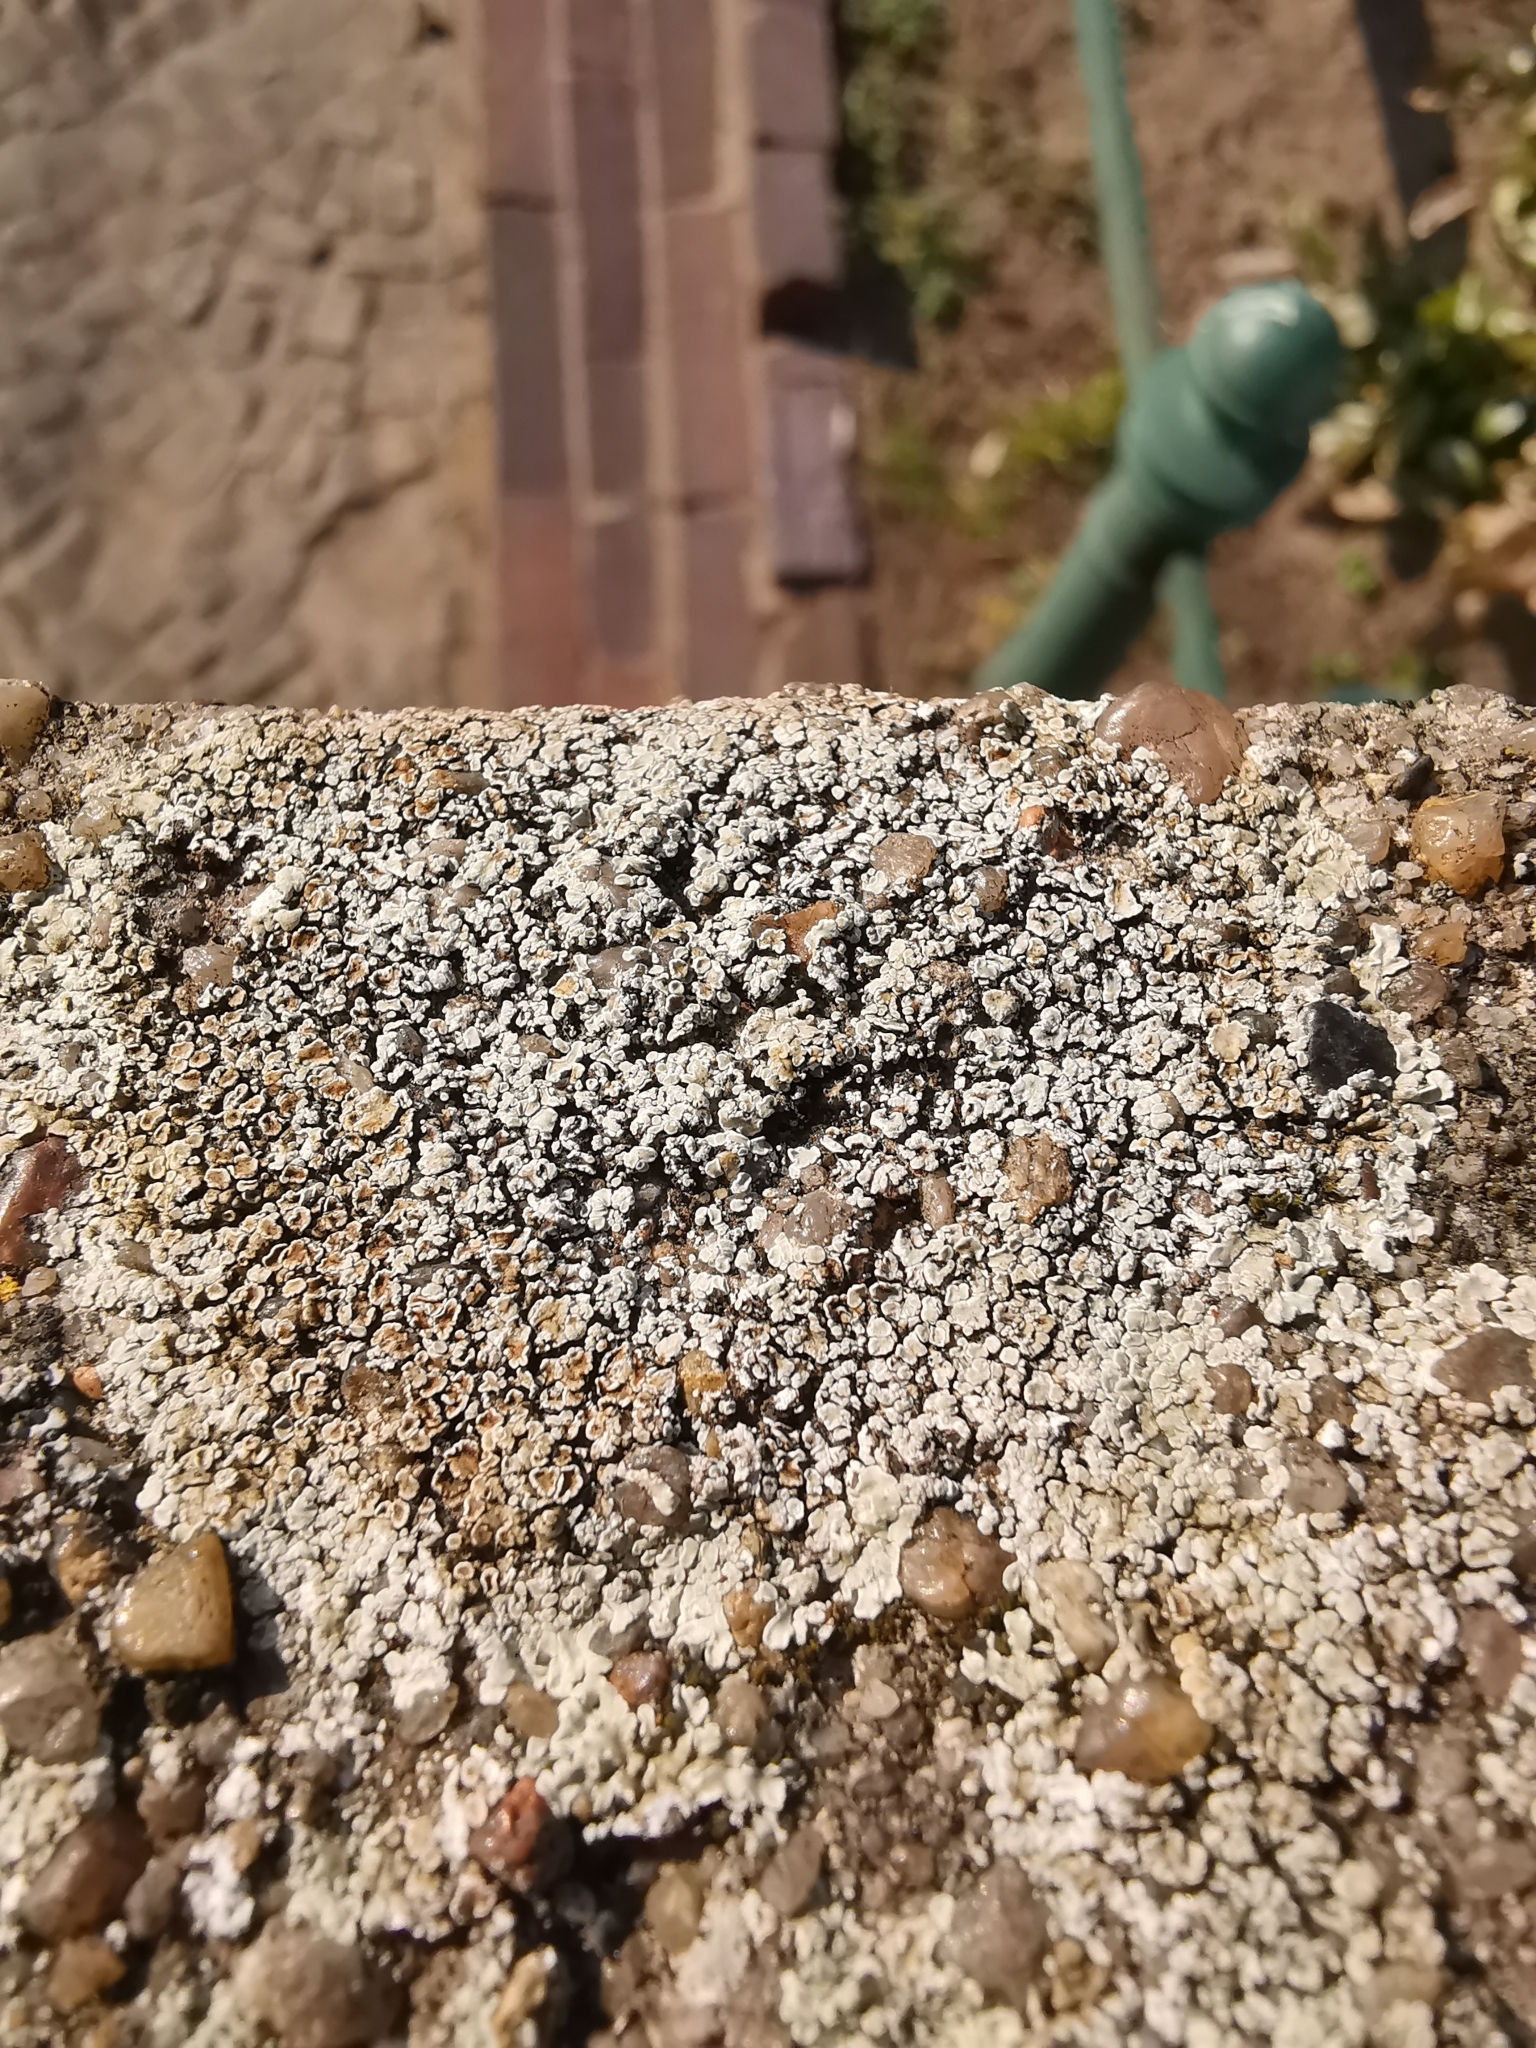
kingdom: Fungi
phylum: Ascomycota
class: Lecanoromycetes
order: Lecanorales
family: Lecanoraceae
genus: Protoparmeliopsis
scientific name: Protoparmeliopsis muralis
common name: Stonewall rim lichen
